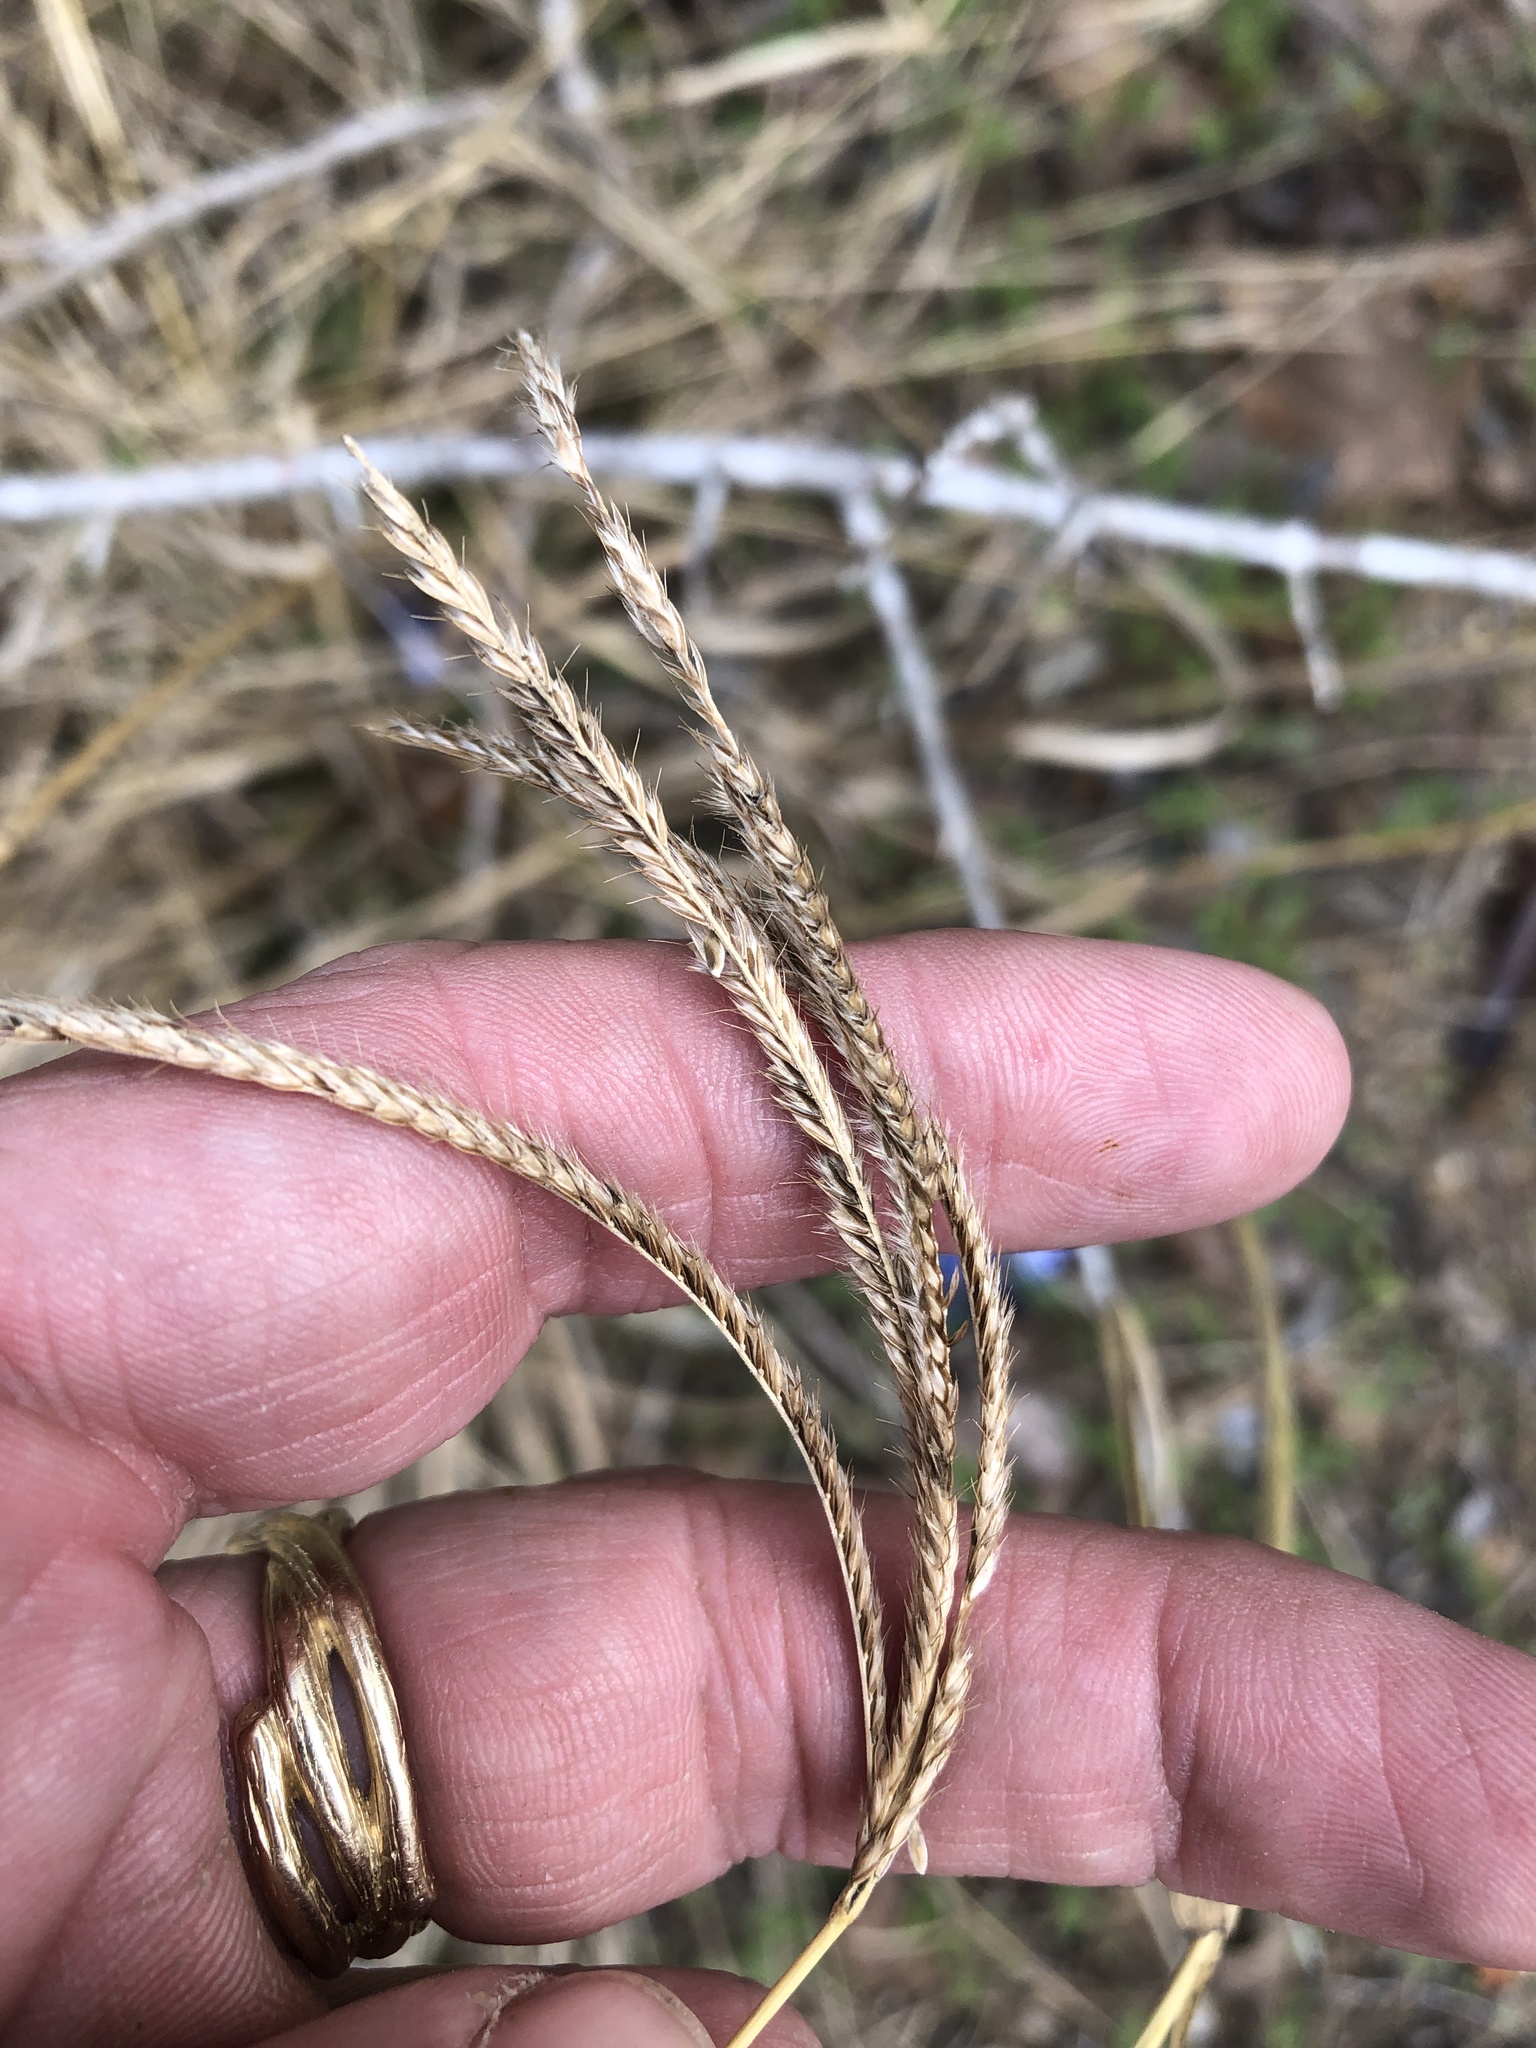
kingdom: Plantae
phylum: Tracheophyta
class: Liliopsida
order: Poales
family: Poaceae
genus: Stapfochloa
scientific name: Stapfochloa canterae
